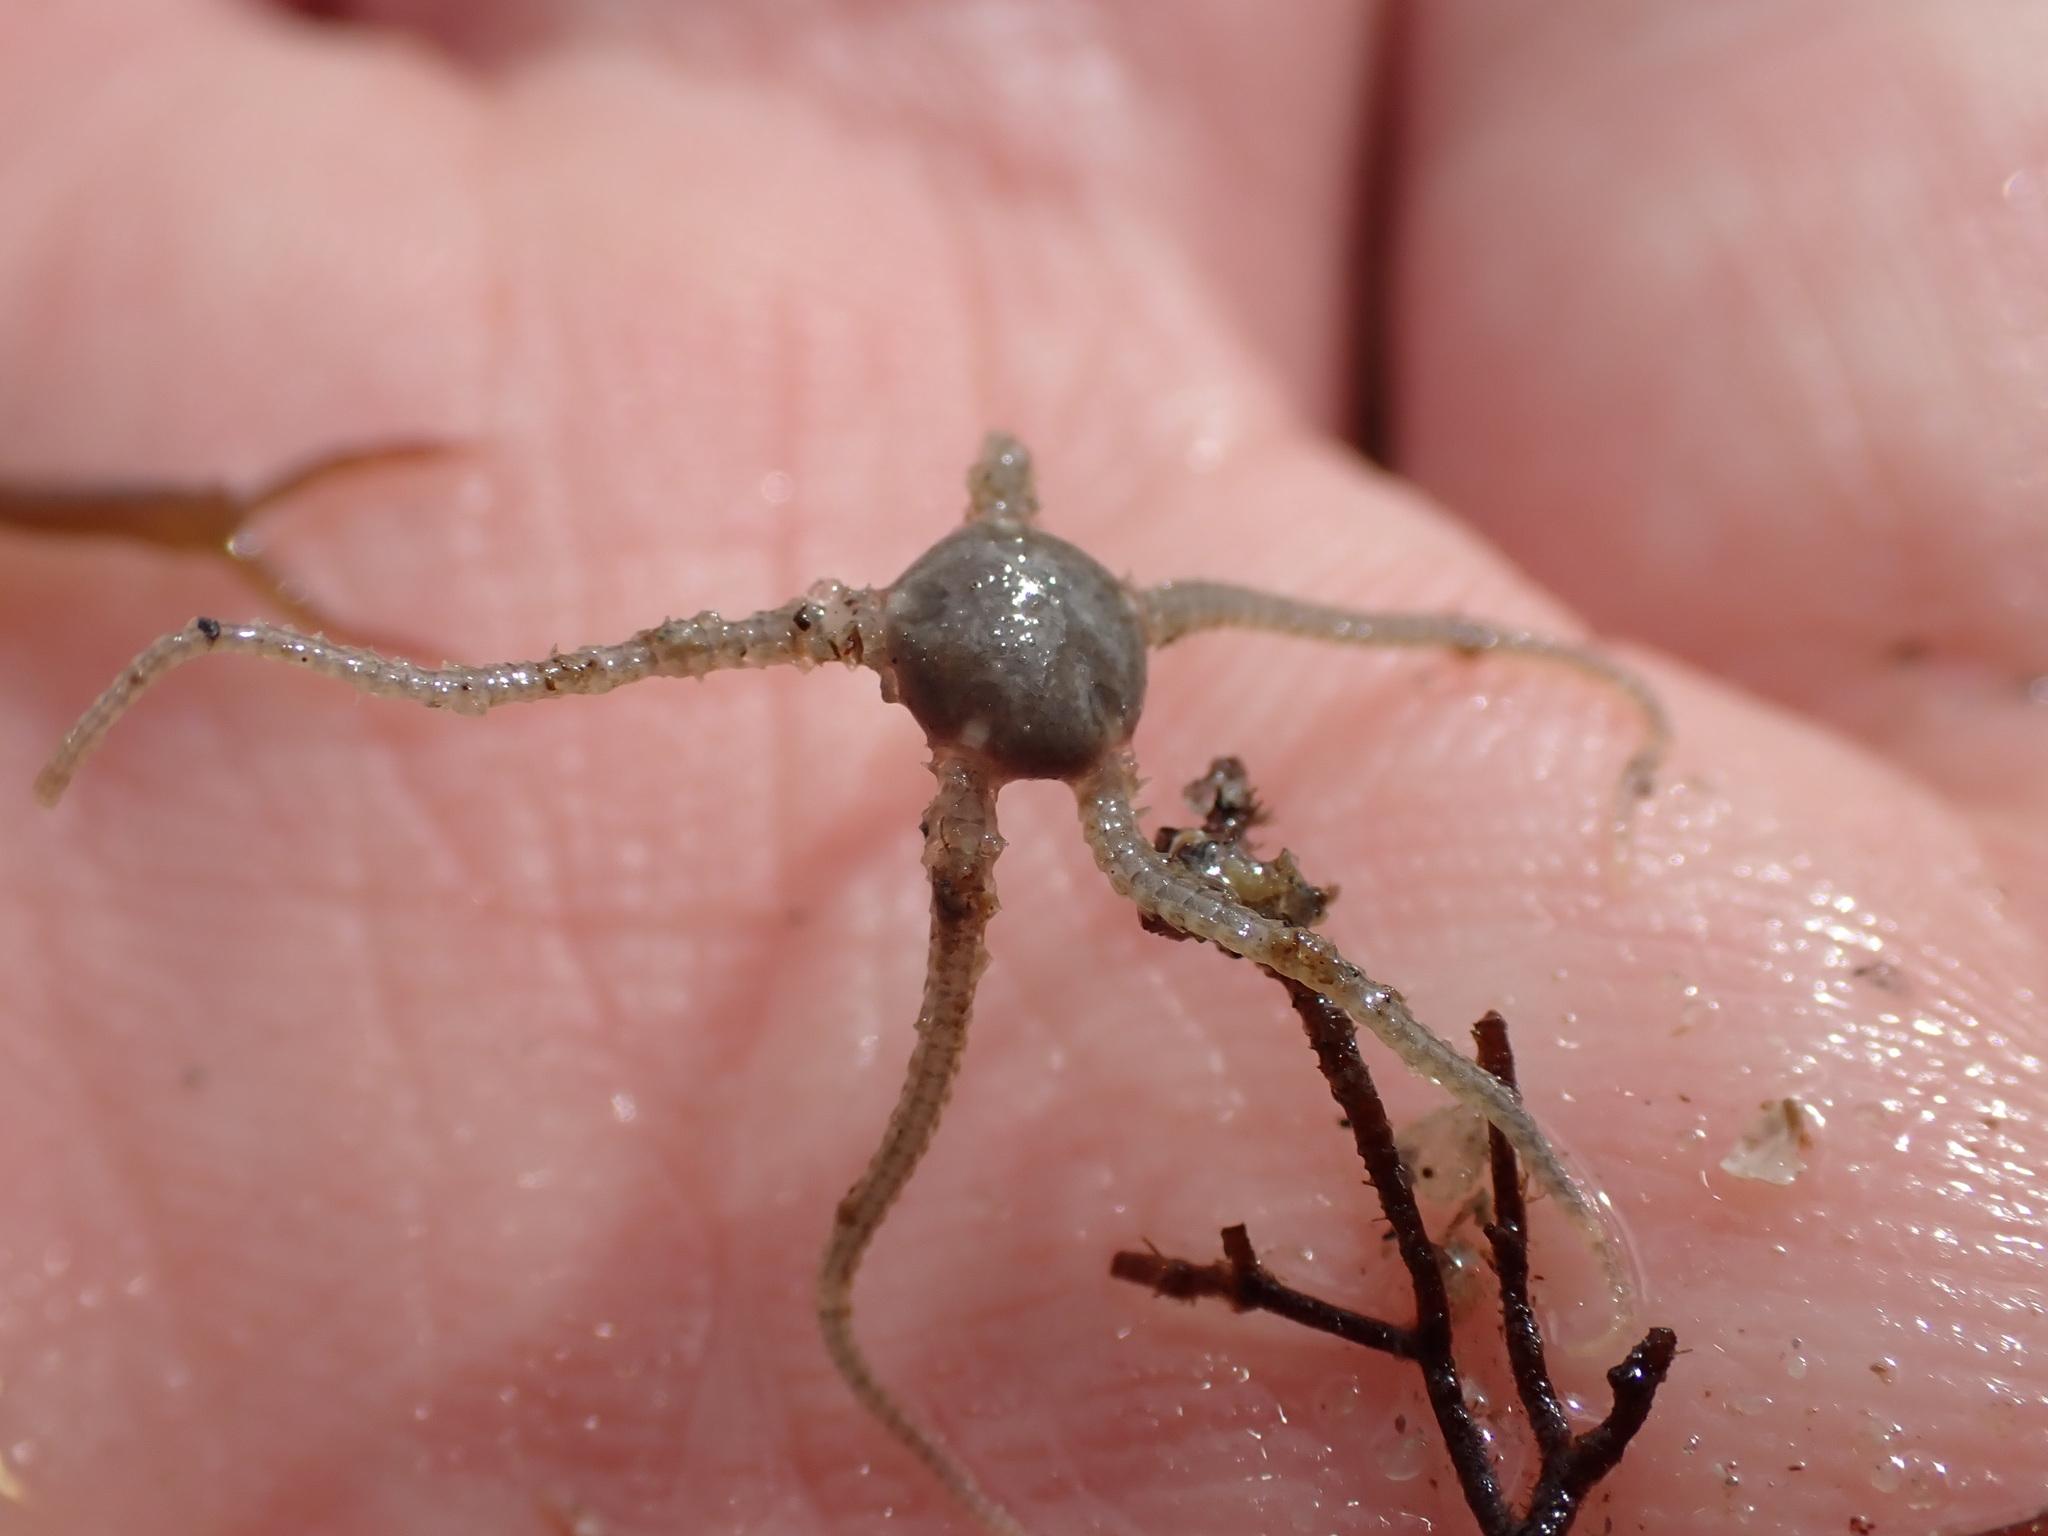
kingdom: Animalia
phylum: Echinodermata
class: Ophiuroidea
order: Amphilepidida
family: Amphiuridae
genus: Amphipholis
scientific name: Amphipholis squamata
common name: Brooding snake star
